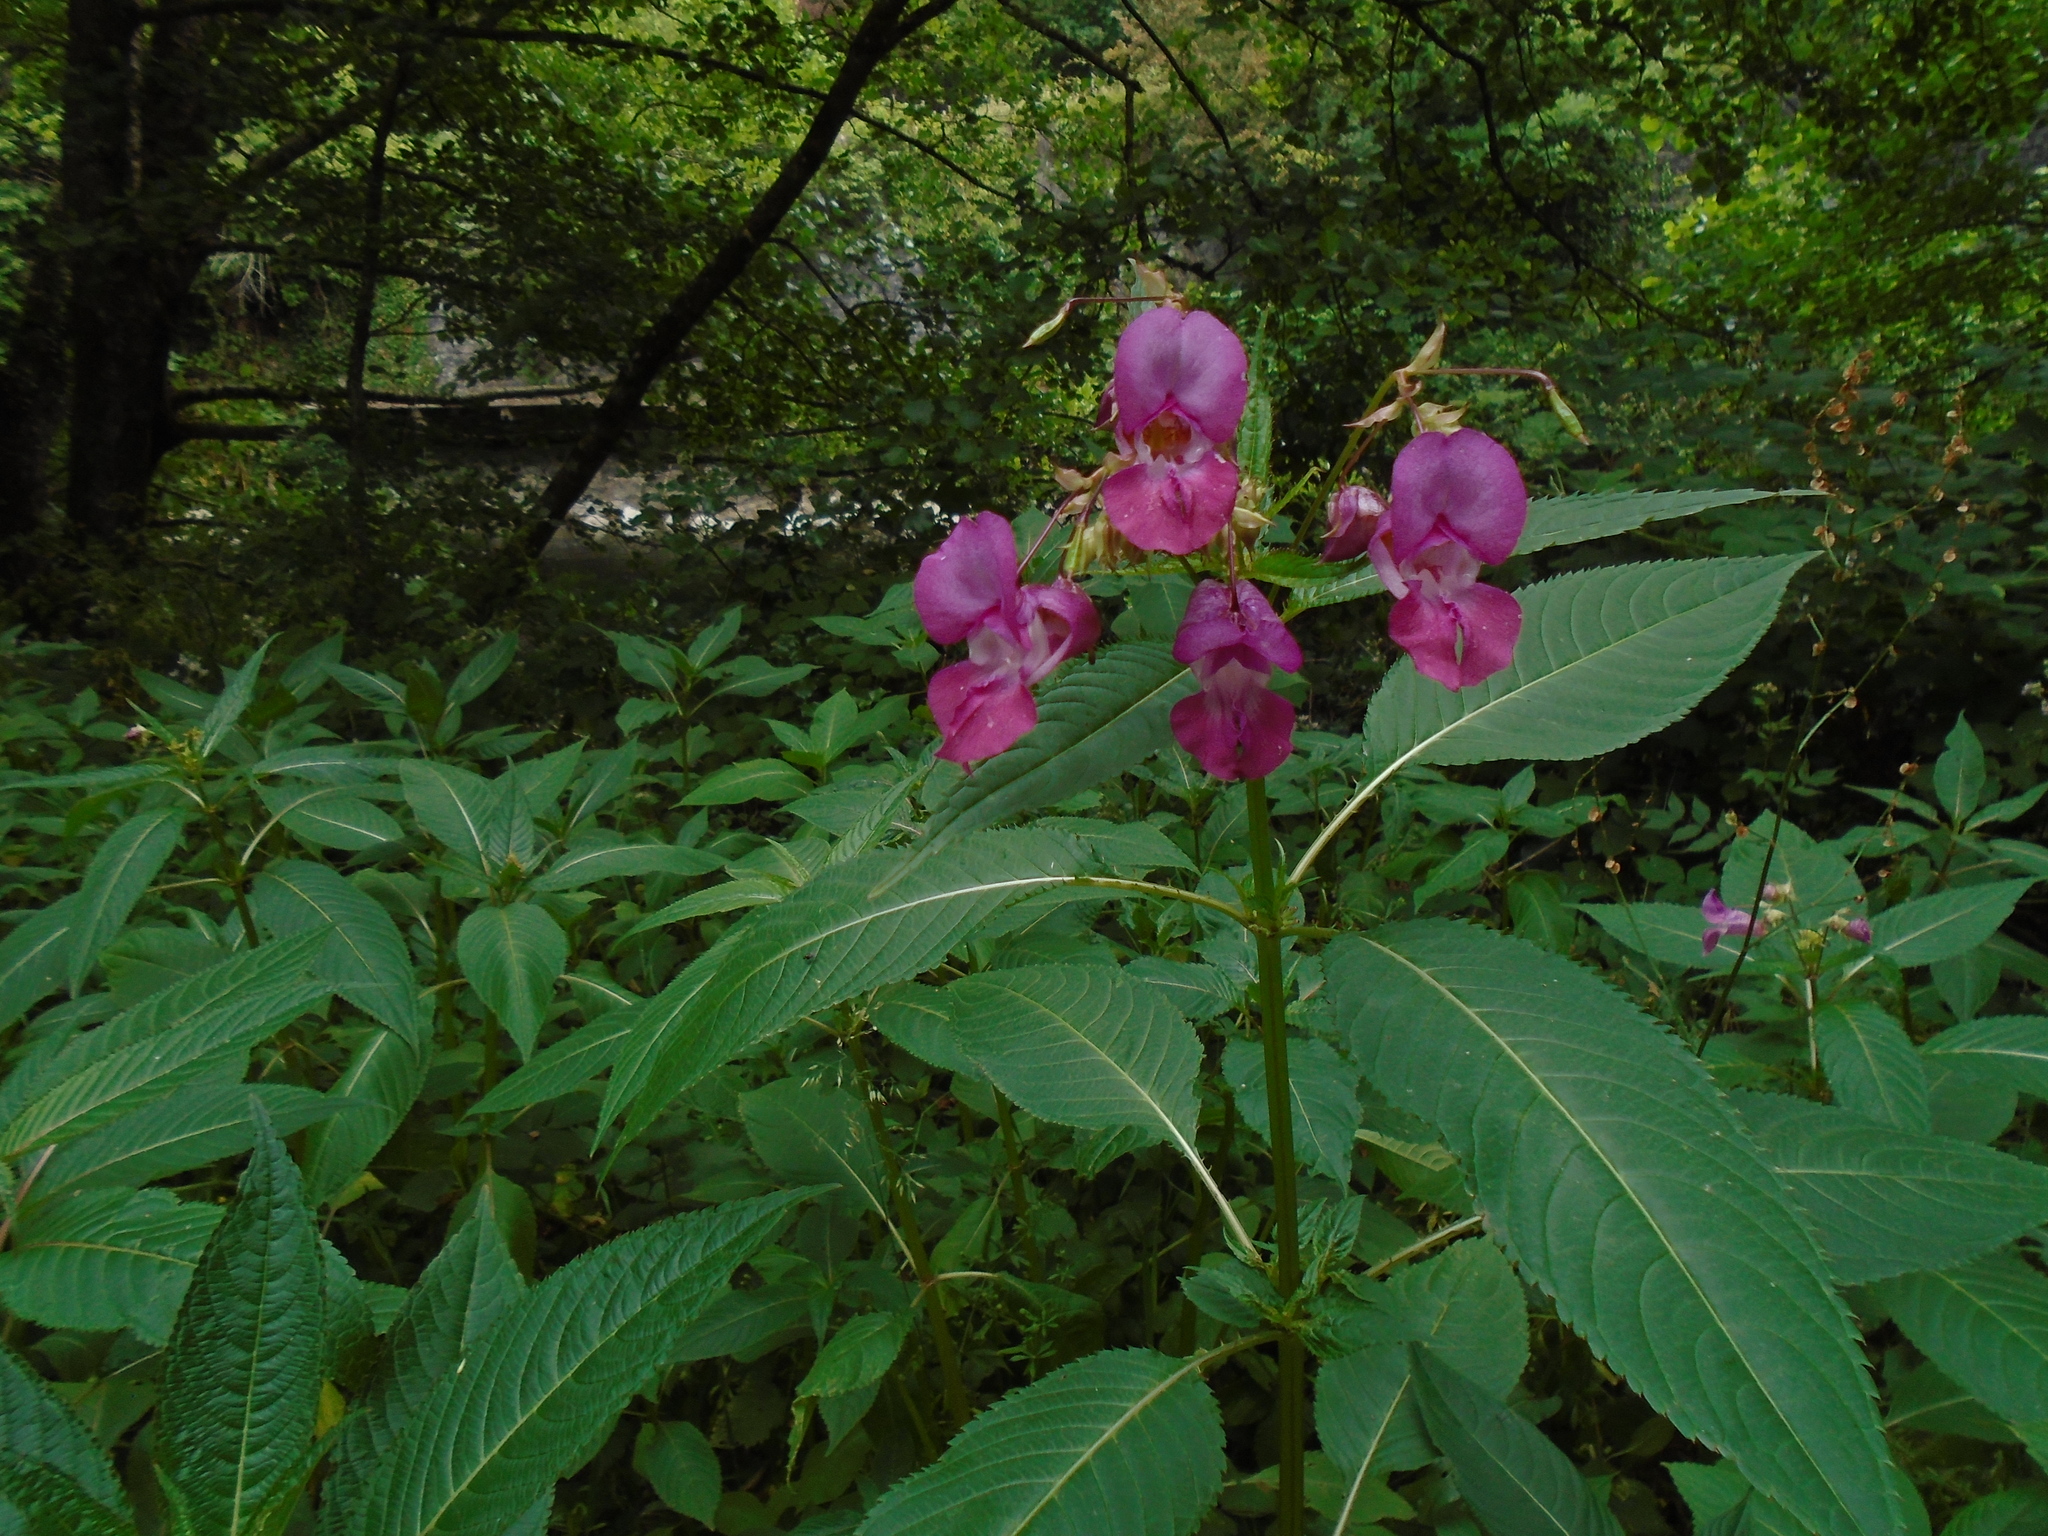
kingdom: Plantae
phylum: Tracheophyta
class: Magnoliopsida
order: Ericales
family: Balsaminaceae
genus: Impatiens
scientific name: Impatiens glandulifera
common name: Himalayan balsam
